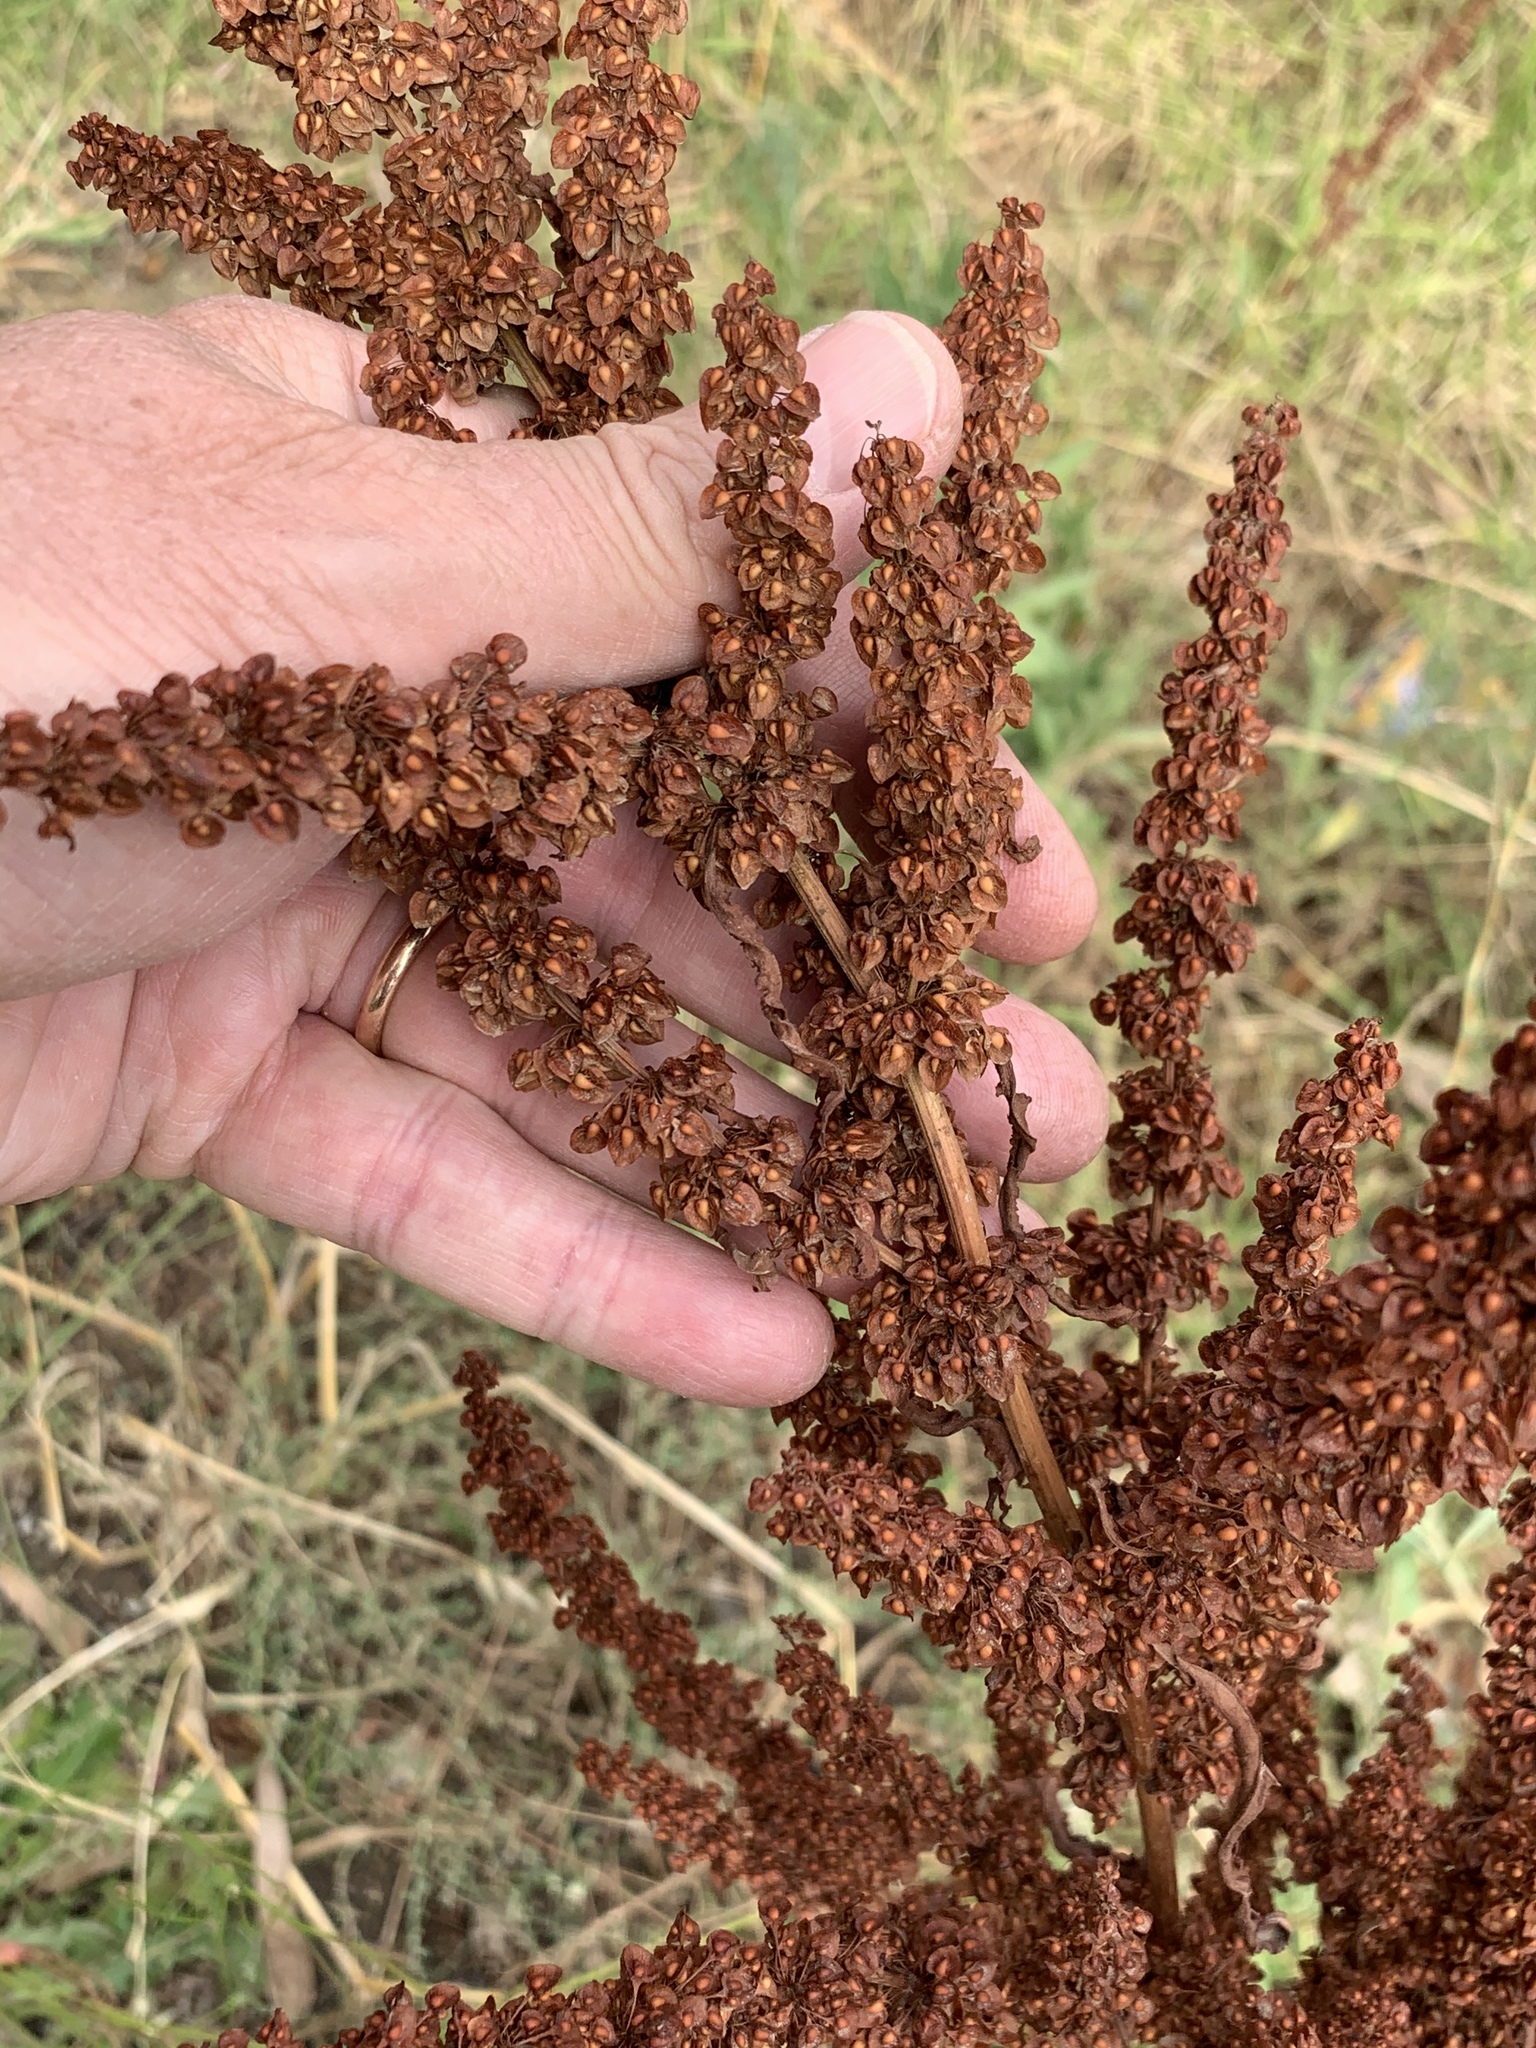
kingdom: Plantae
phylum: Tracheophyta
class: Magnoliopsida
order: Caryophyllales
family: Polygonaceae
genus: Rumex
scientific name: Rumex crispus
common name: Curled dock
